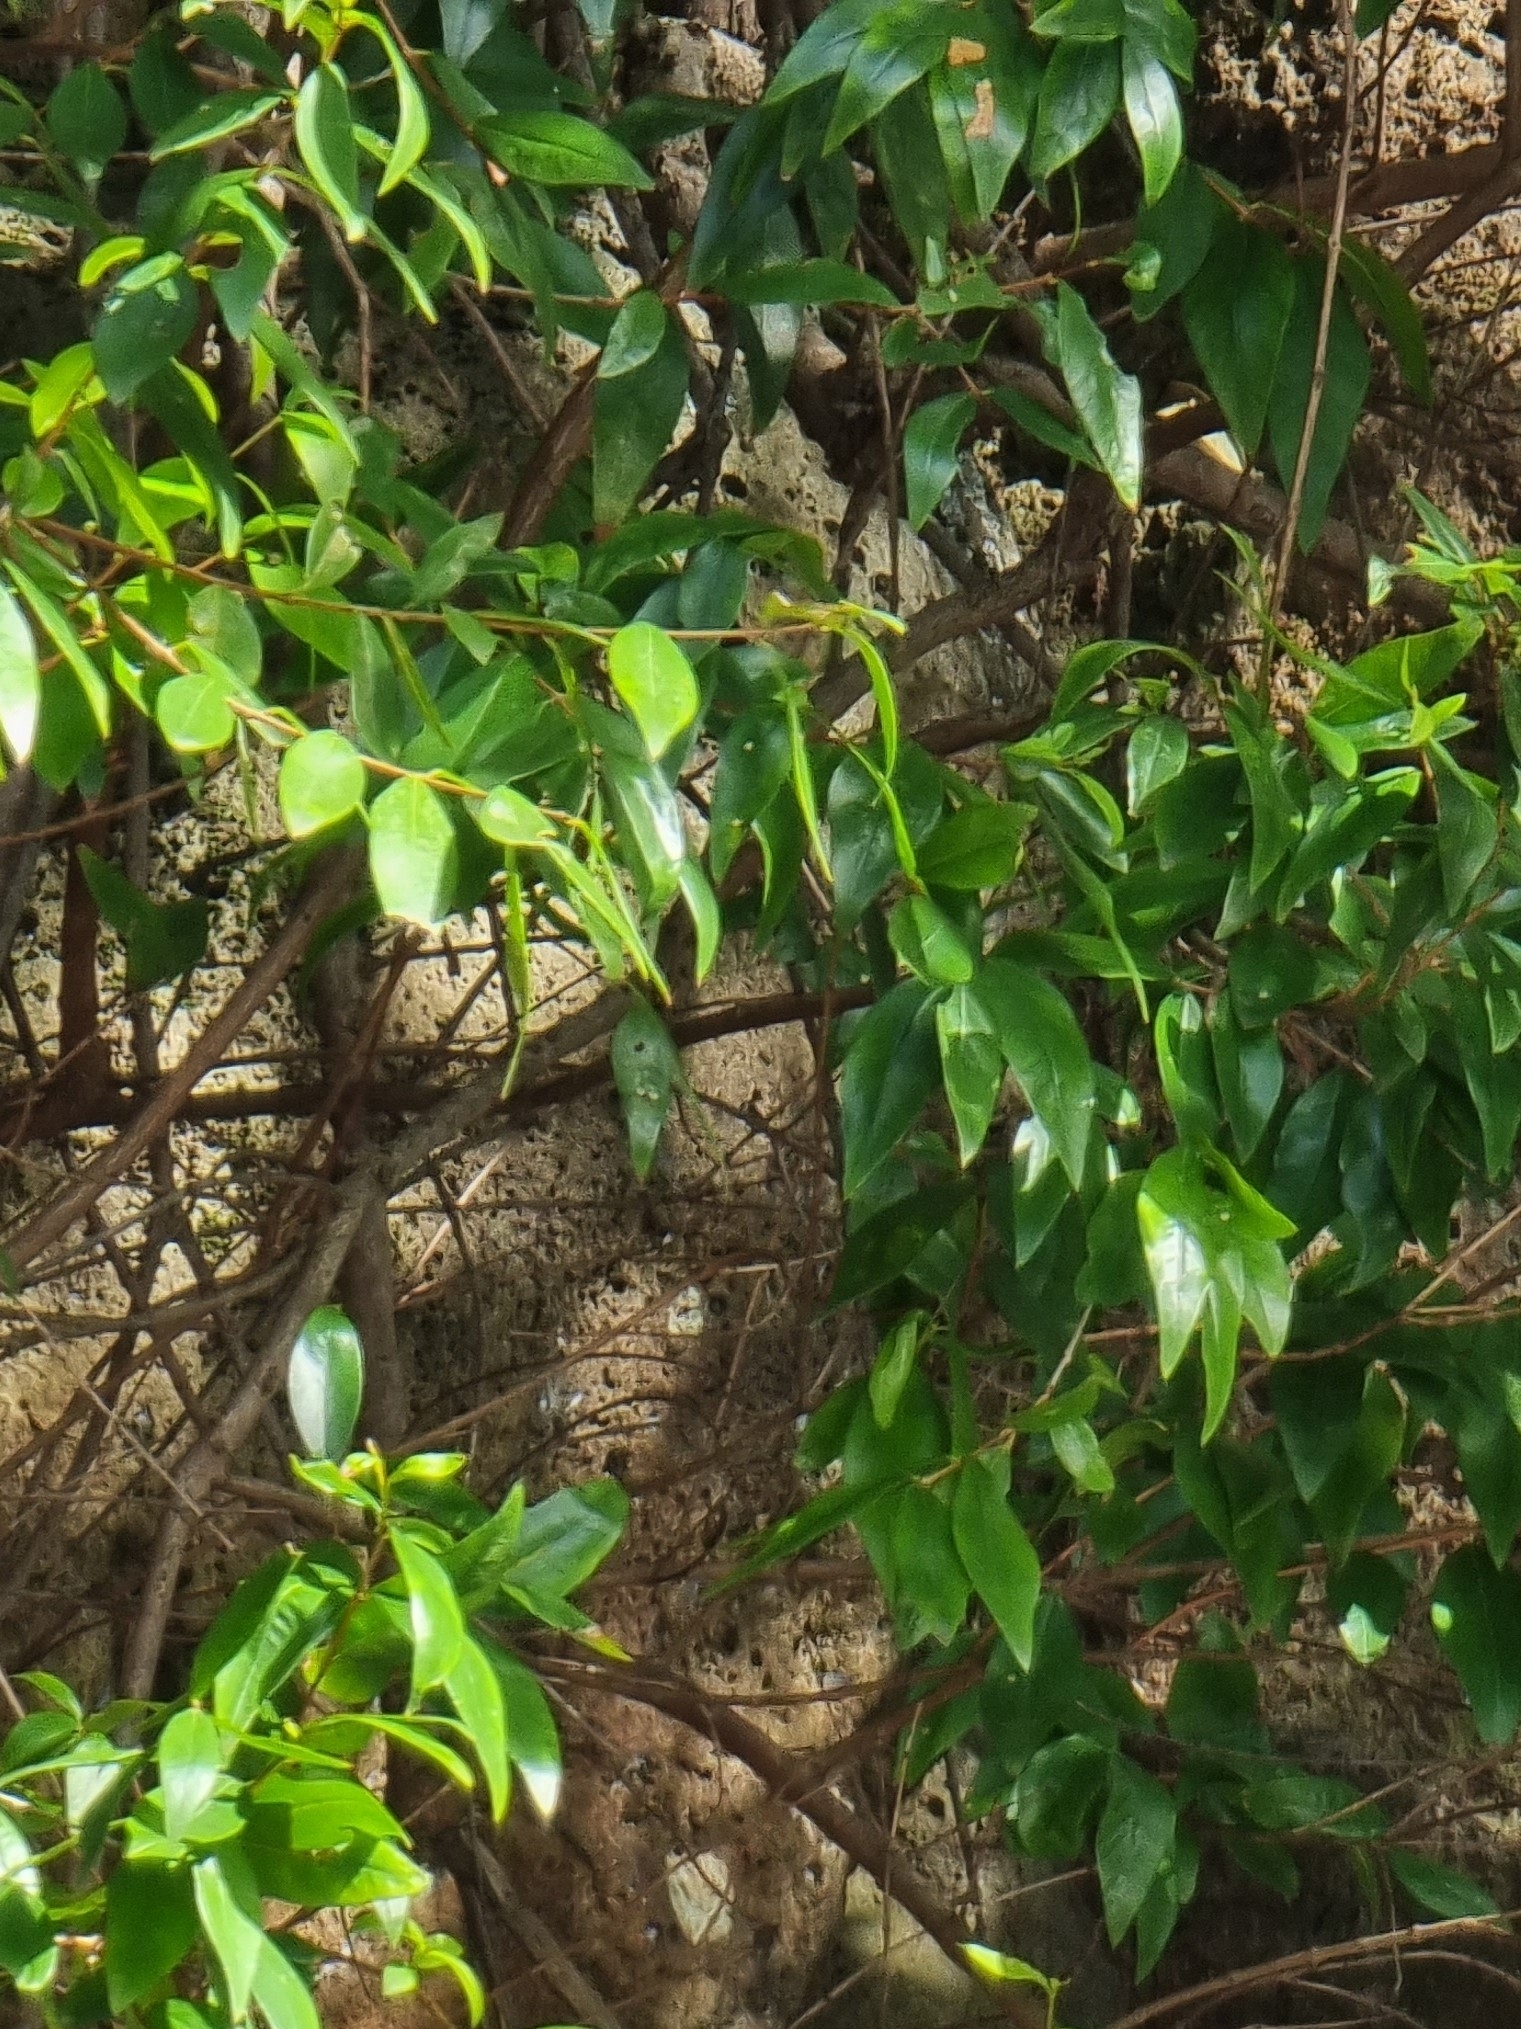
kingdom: Plantae
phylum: Tracheophyta
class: Magnoliopsida
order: Myrtales
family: Myrtaceae
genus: Myrtus
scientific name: Myrtus communis
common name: Myrtle
